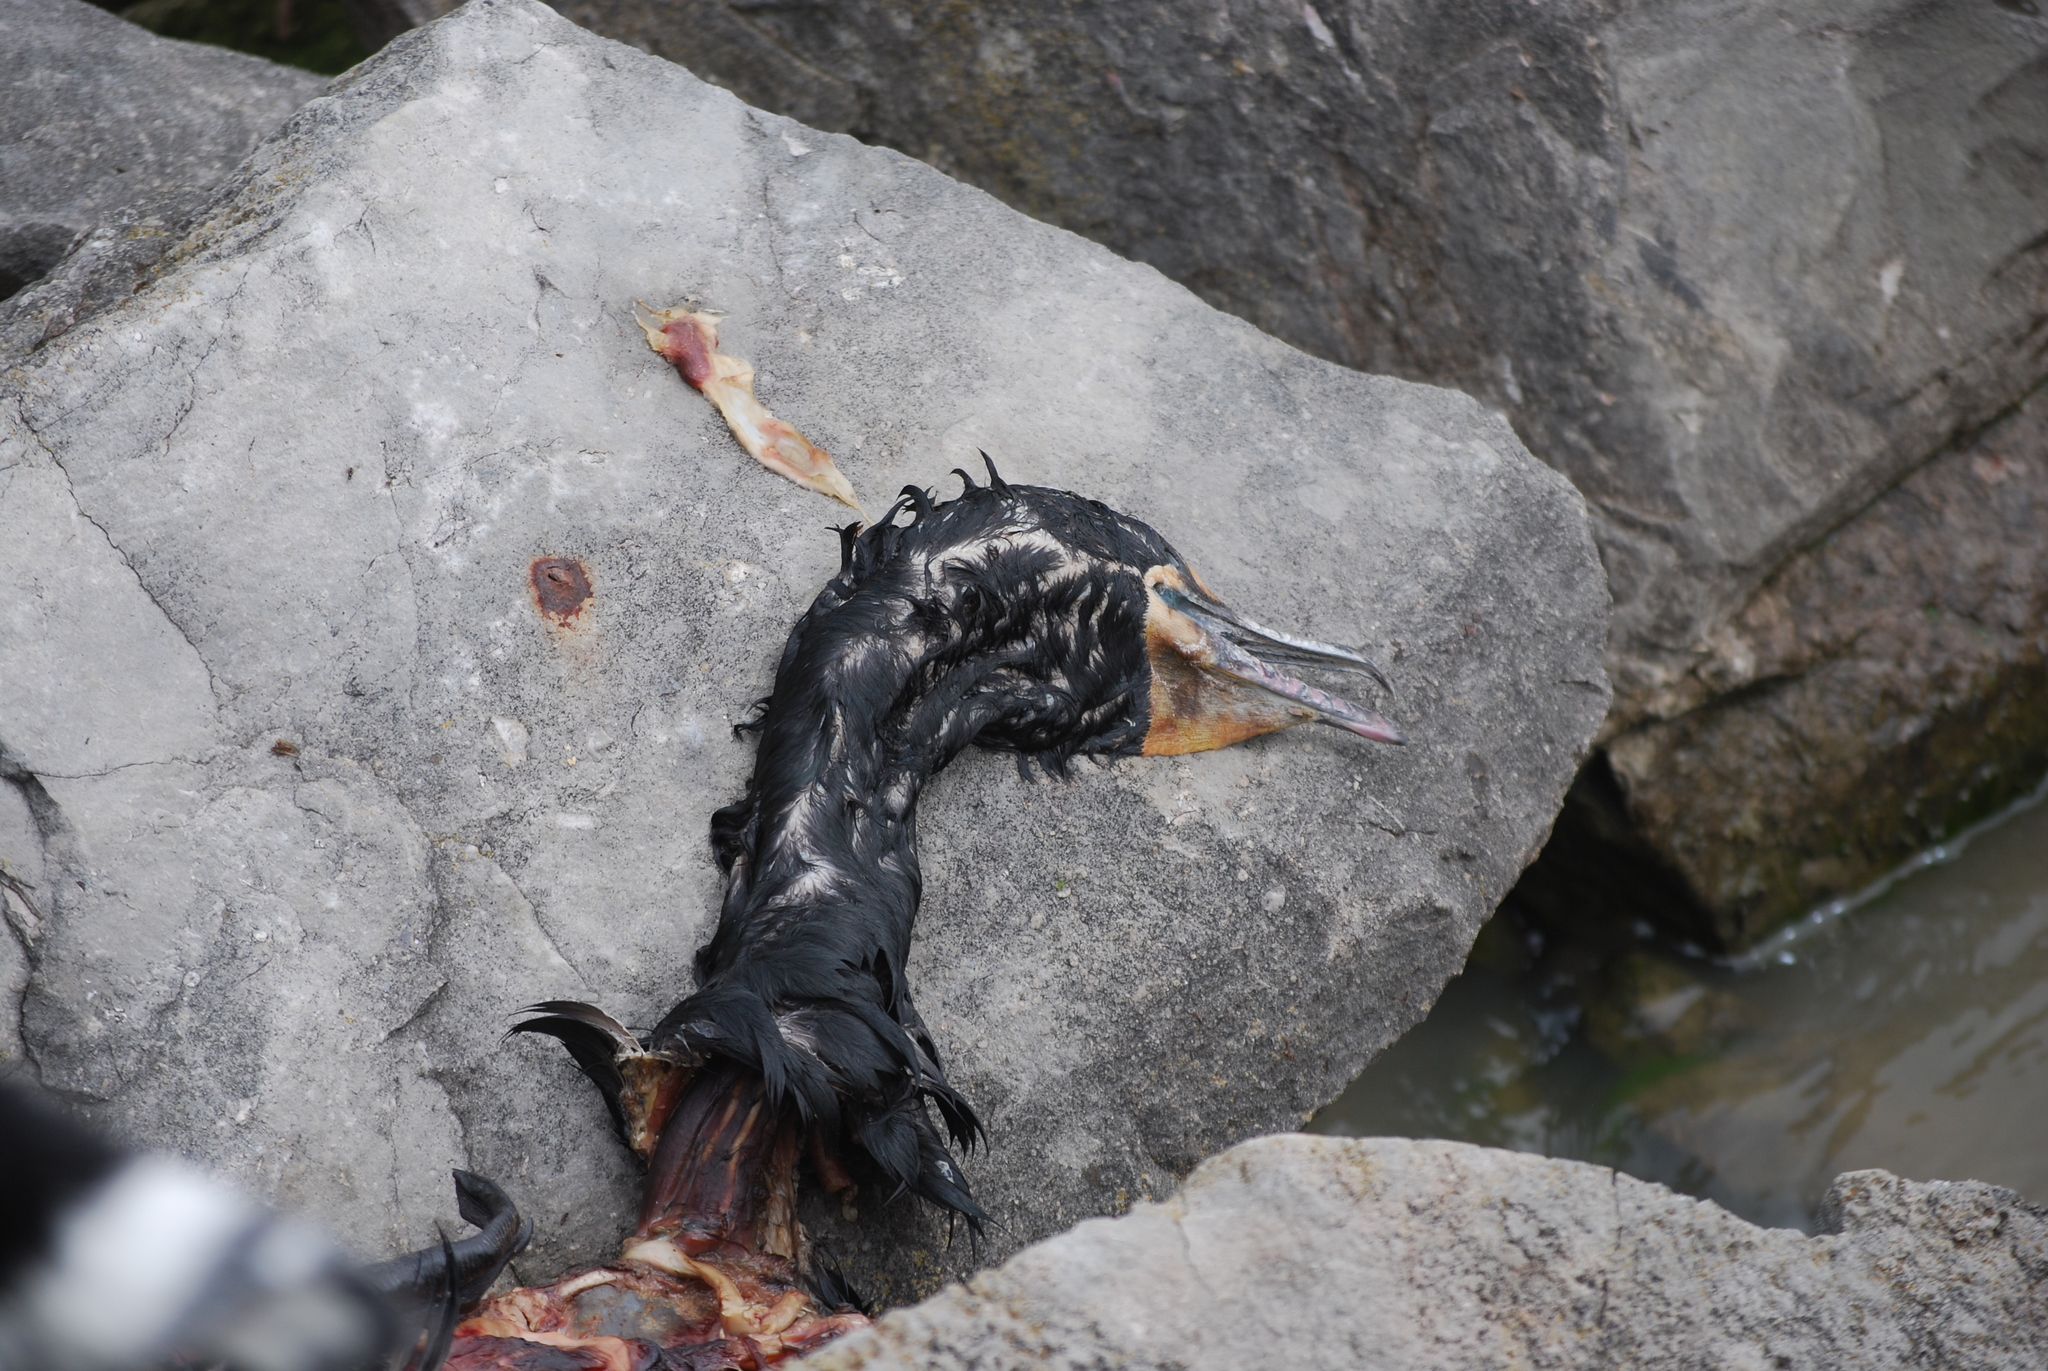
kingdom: Animalia
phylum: Chordata
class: Aves
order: Suliformes
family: Phalacrocoracidae
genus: Phalacrocorax
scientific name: Phalacrocorax auritus
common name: Double-crested cormorant
